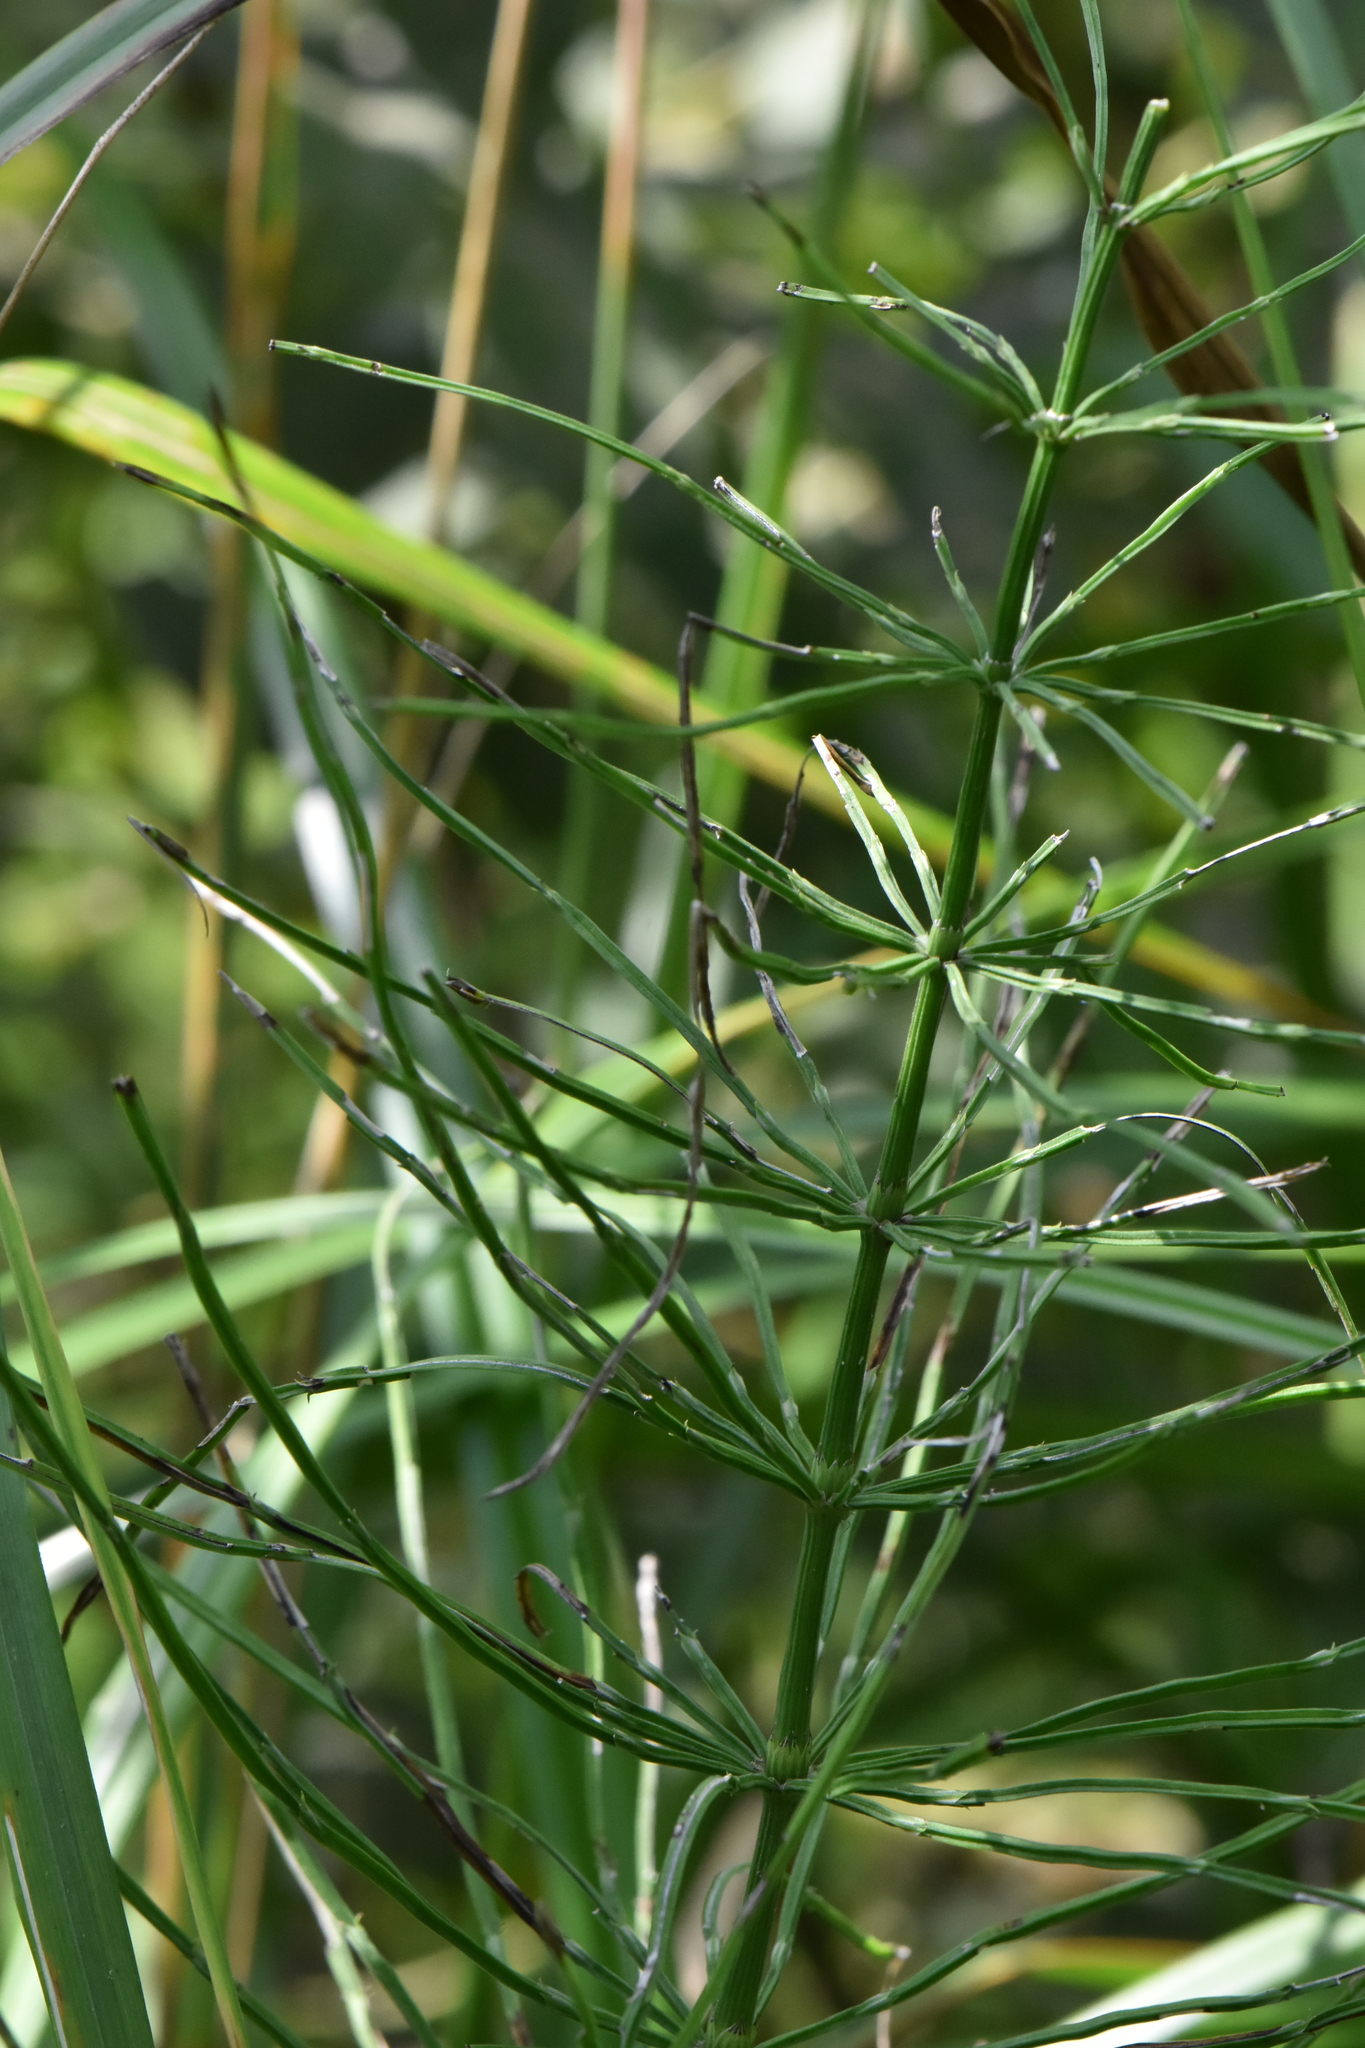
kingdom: Plantae
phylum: Tracheophyta
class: Polypodiopsida
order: Equisetales
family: Equisetaceae
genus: Equisetum
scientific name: Equisetum arvense
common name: Field horsetail
